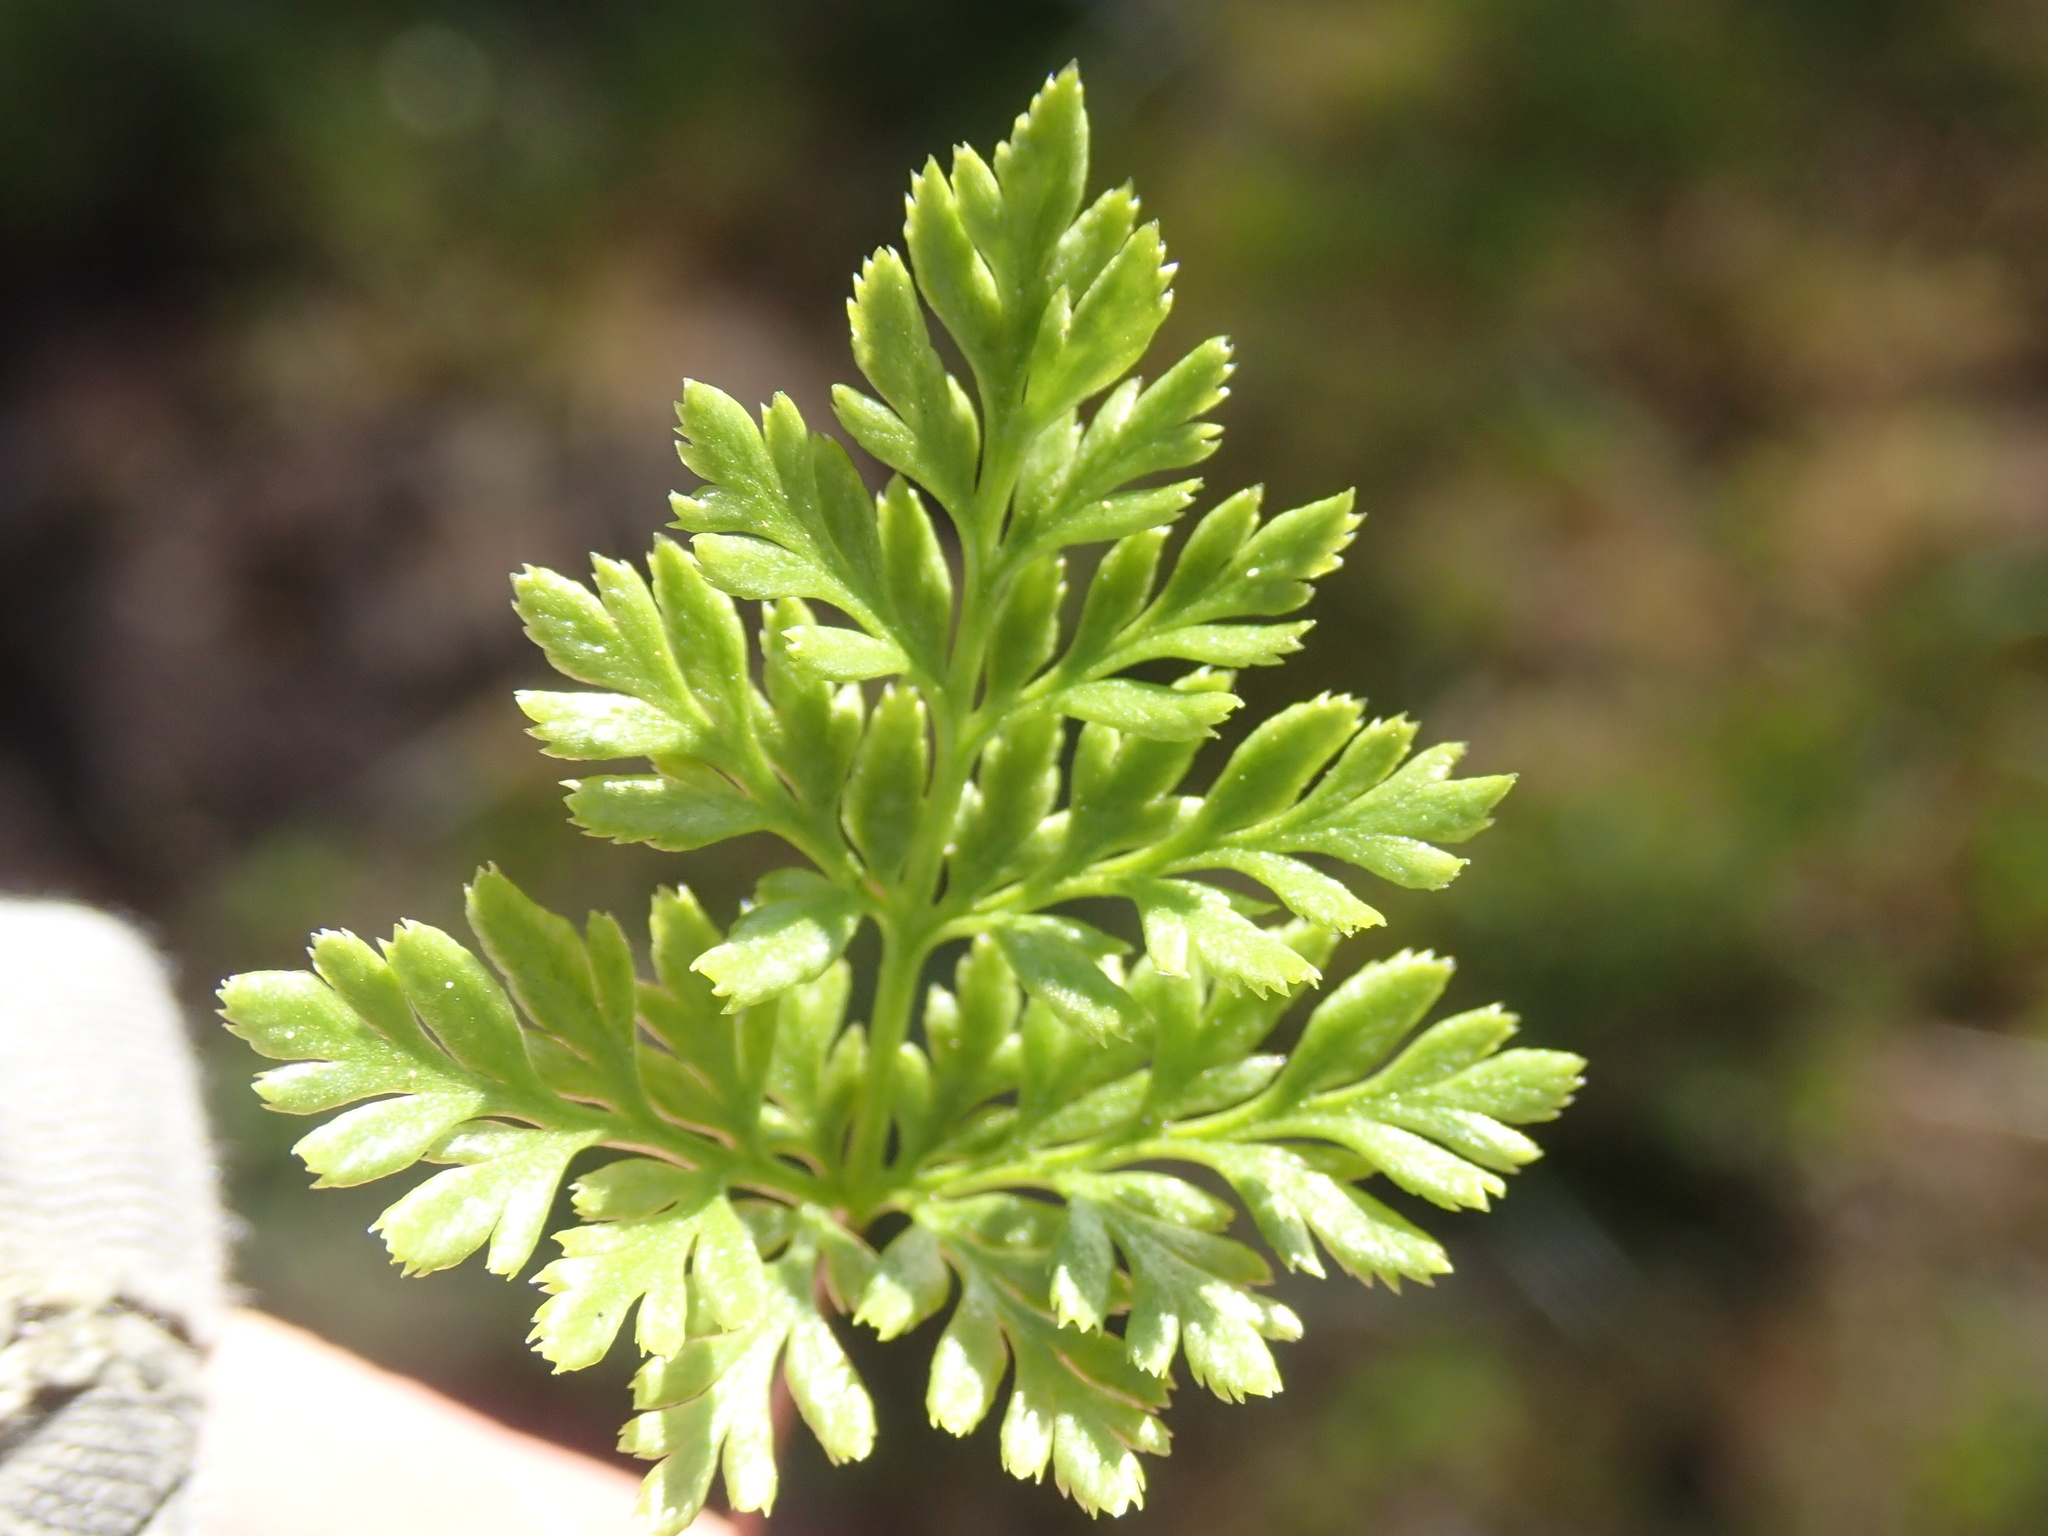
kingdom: Plantae
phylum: Tracheophyta
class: Polypodiopsida
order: Polypodiales
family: Pteridaceae
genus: Aspidotis
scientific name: Aspidotis densa
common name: Indian's dream
